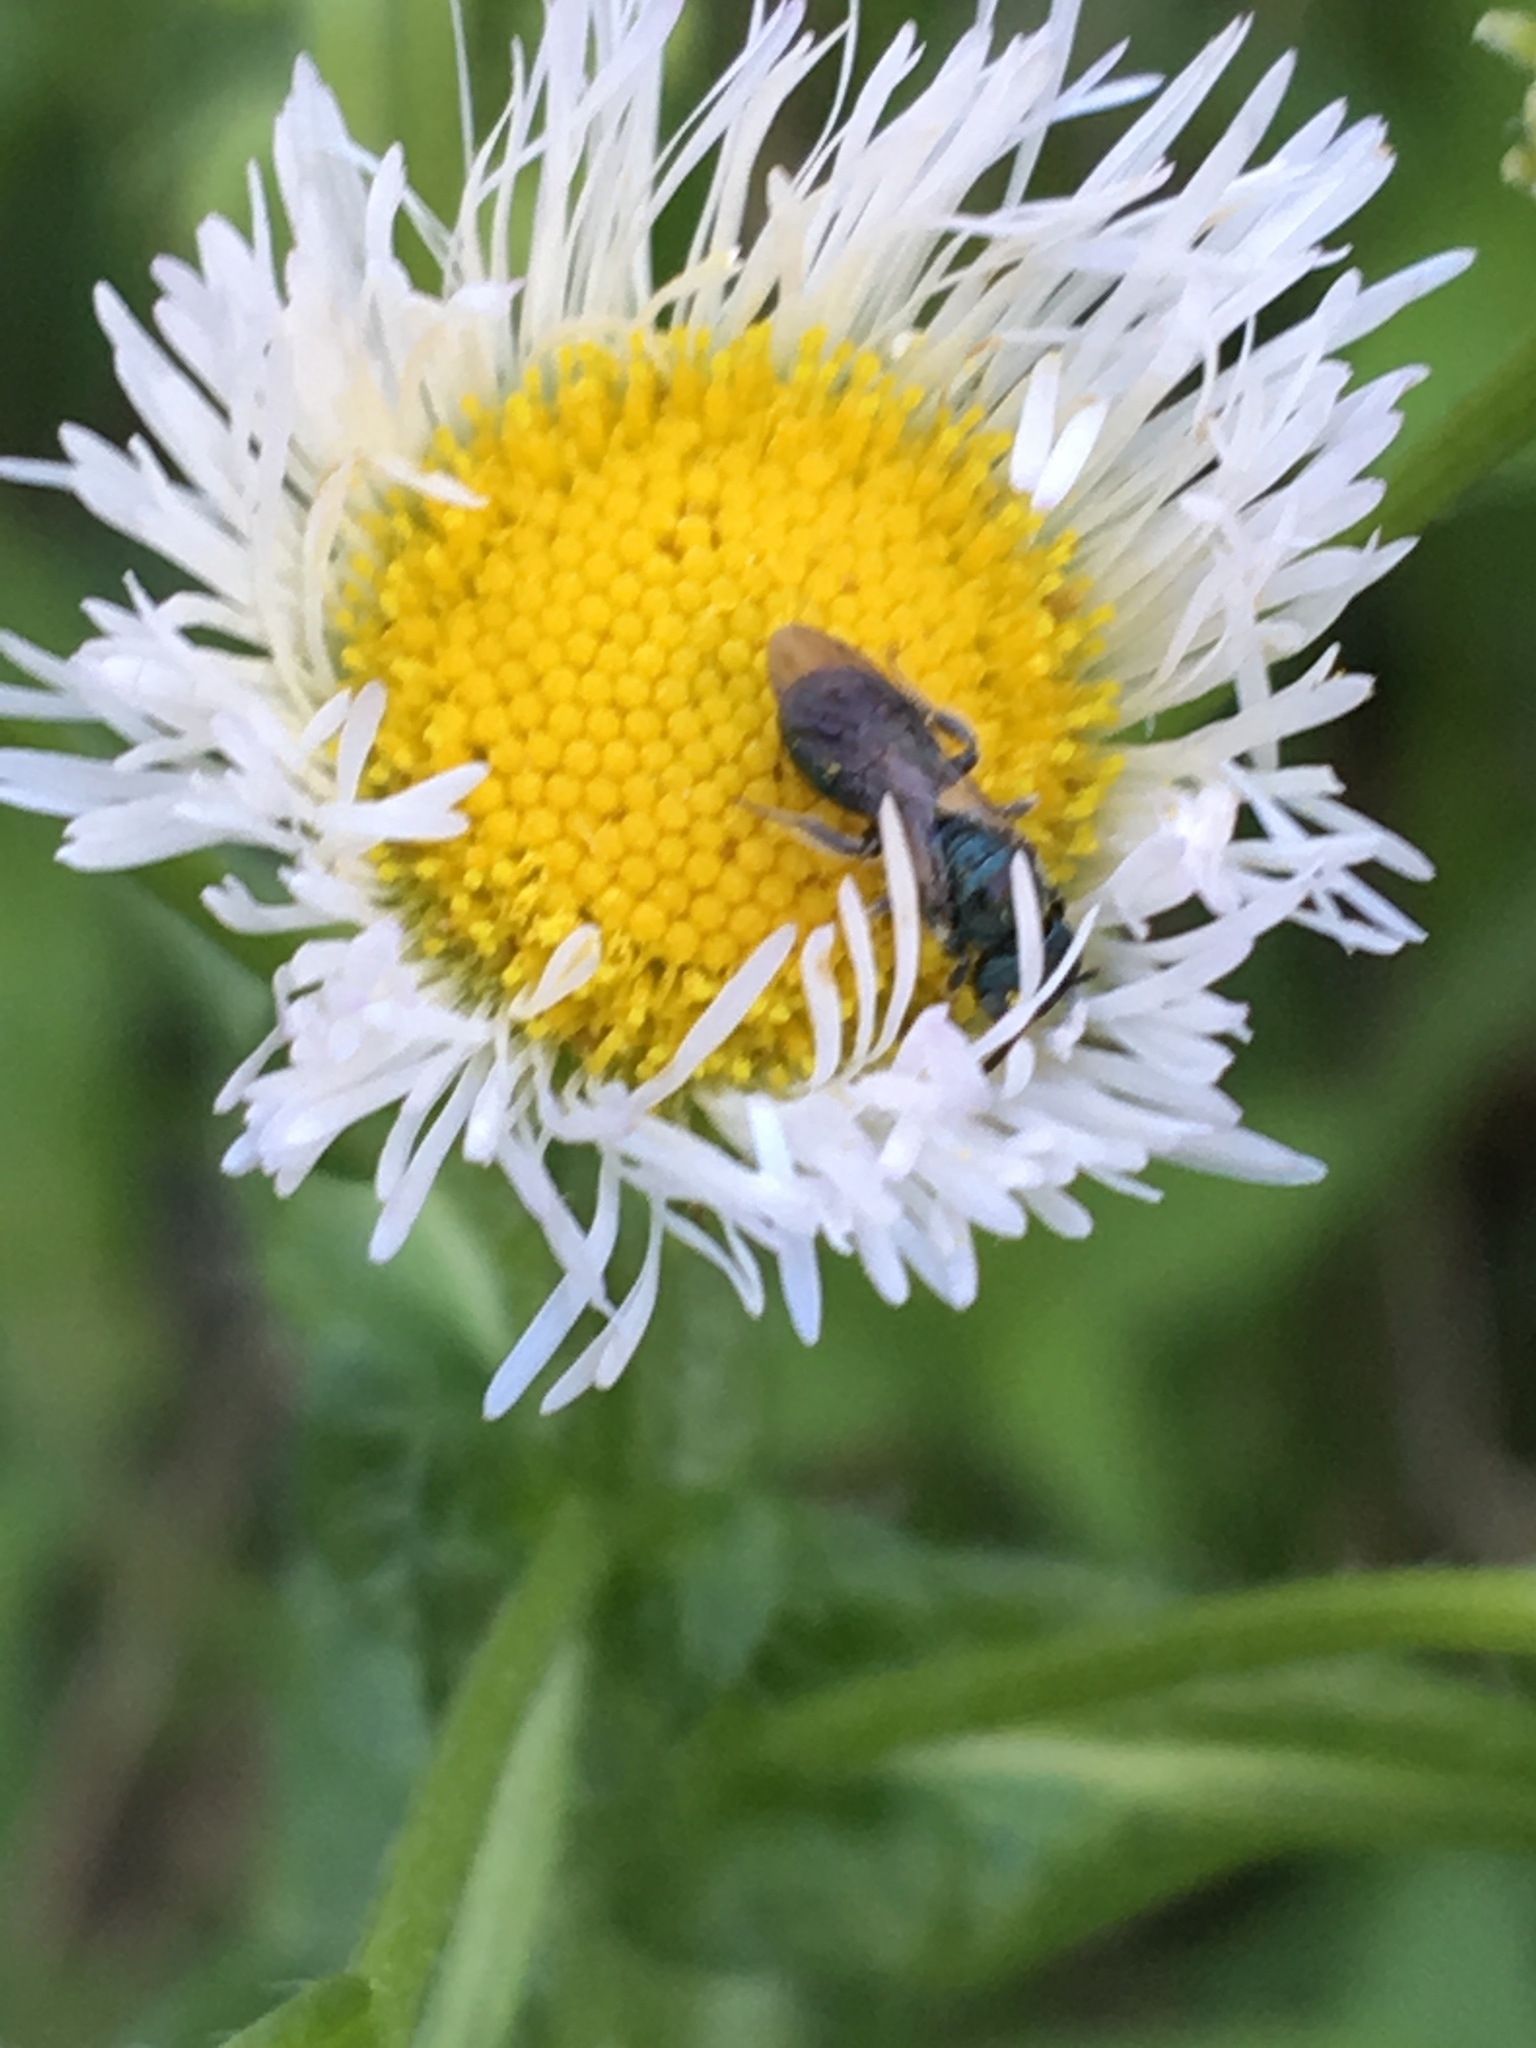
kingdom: Plantae
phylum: Tracheophyta
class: Magnoliopsida
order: Asterales
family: Asteraceae
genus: Erigeron
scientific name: Erigeron philadelphicus
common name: Robin's-plantain
